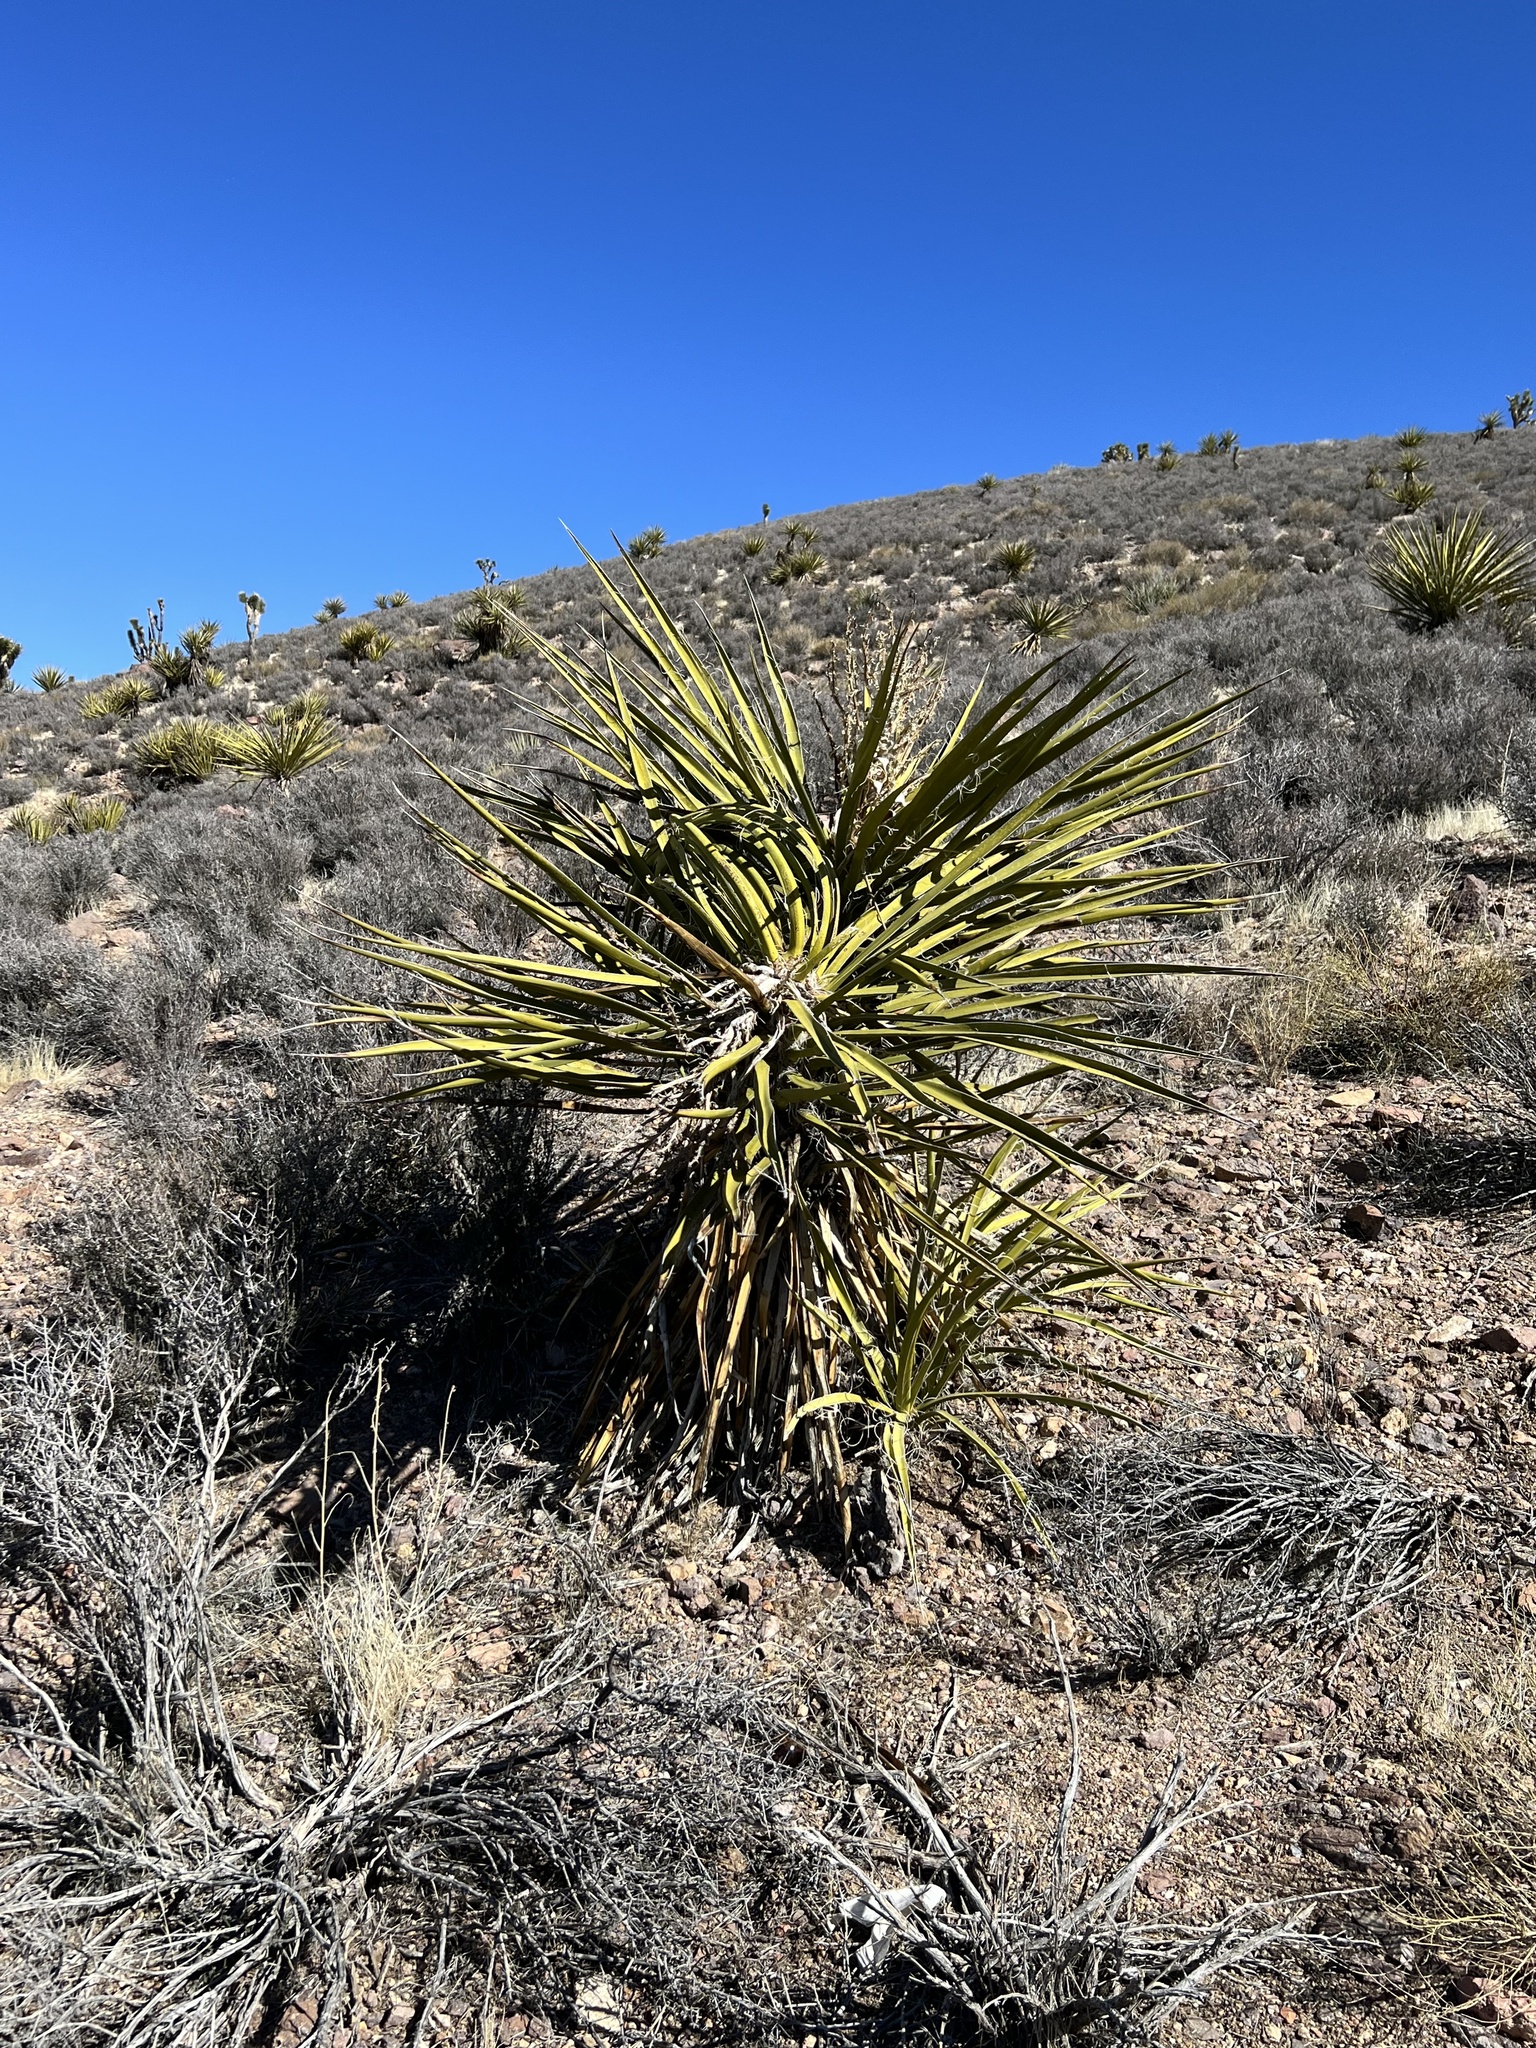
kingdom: Plantae
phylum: Tracheophyta
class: Liliopsida
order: Asparagales
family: Asparagaceae
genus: Yucca
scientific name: Yucca schidigera
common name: Mojave yucca
